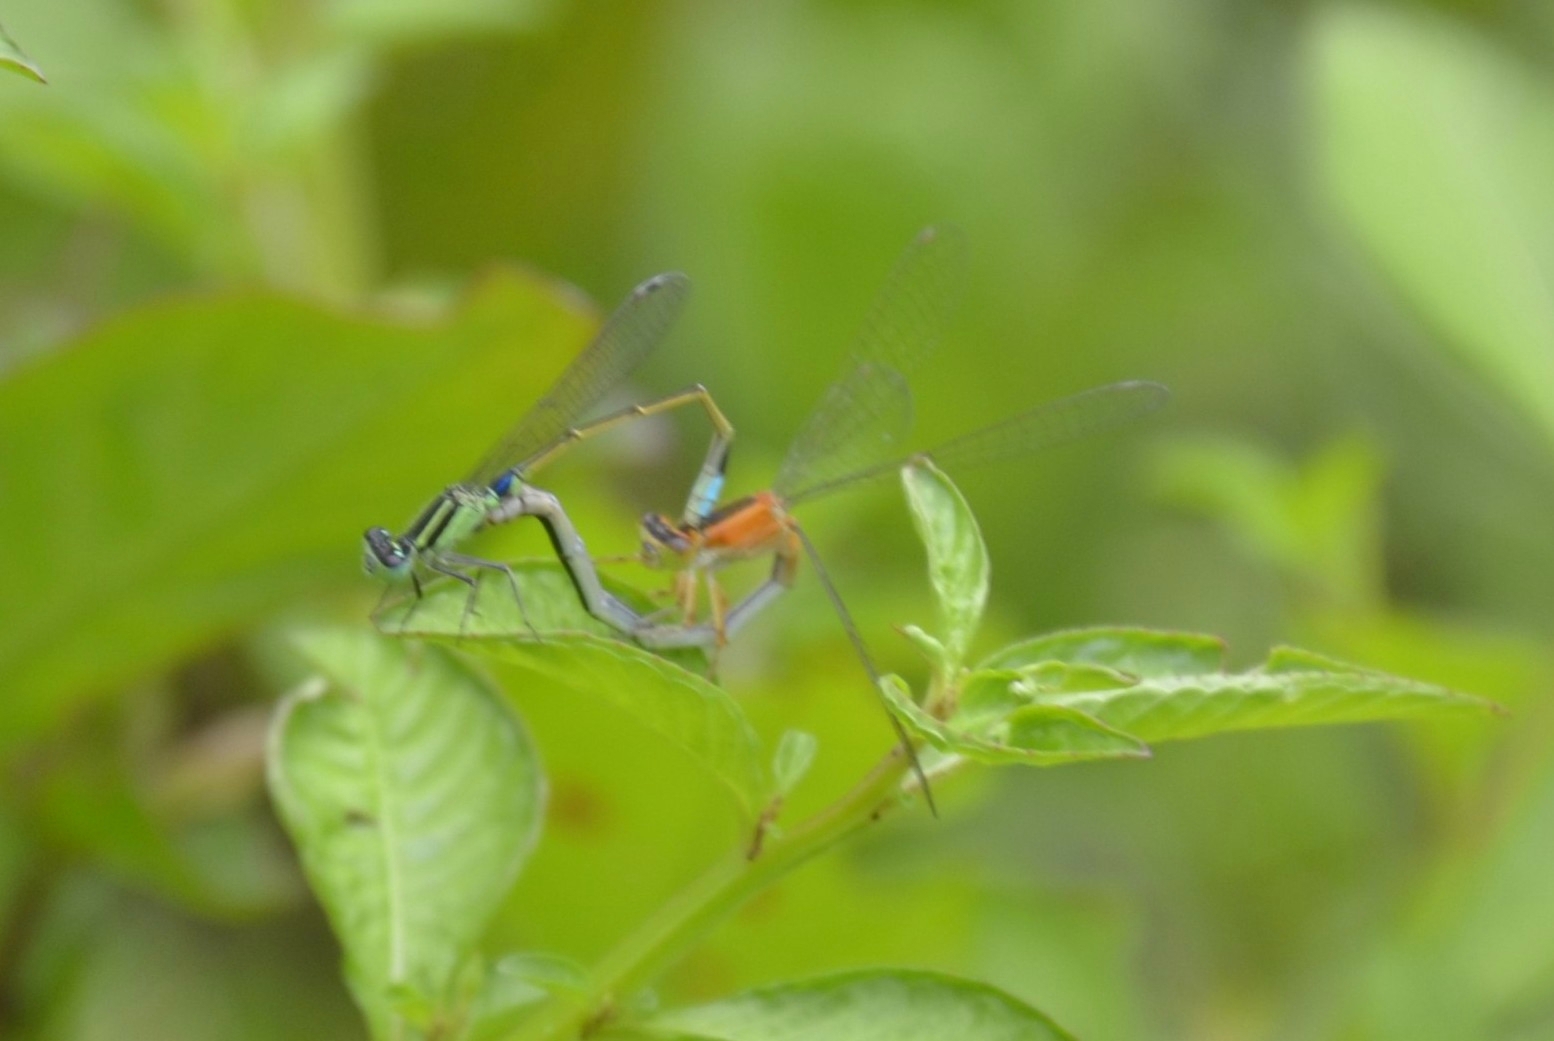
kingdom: Animalia
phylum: Arthropoda
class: Insecta
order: Odonata
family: Coenagrionidae
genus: Ischnura
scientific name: Ischnura senegalensis
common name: Tropical bluetail
